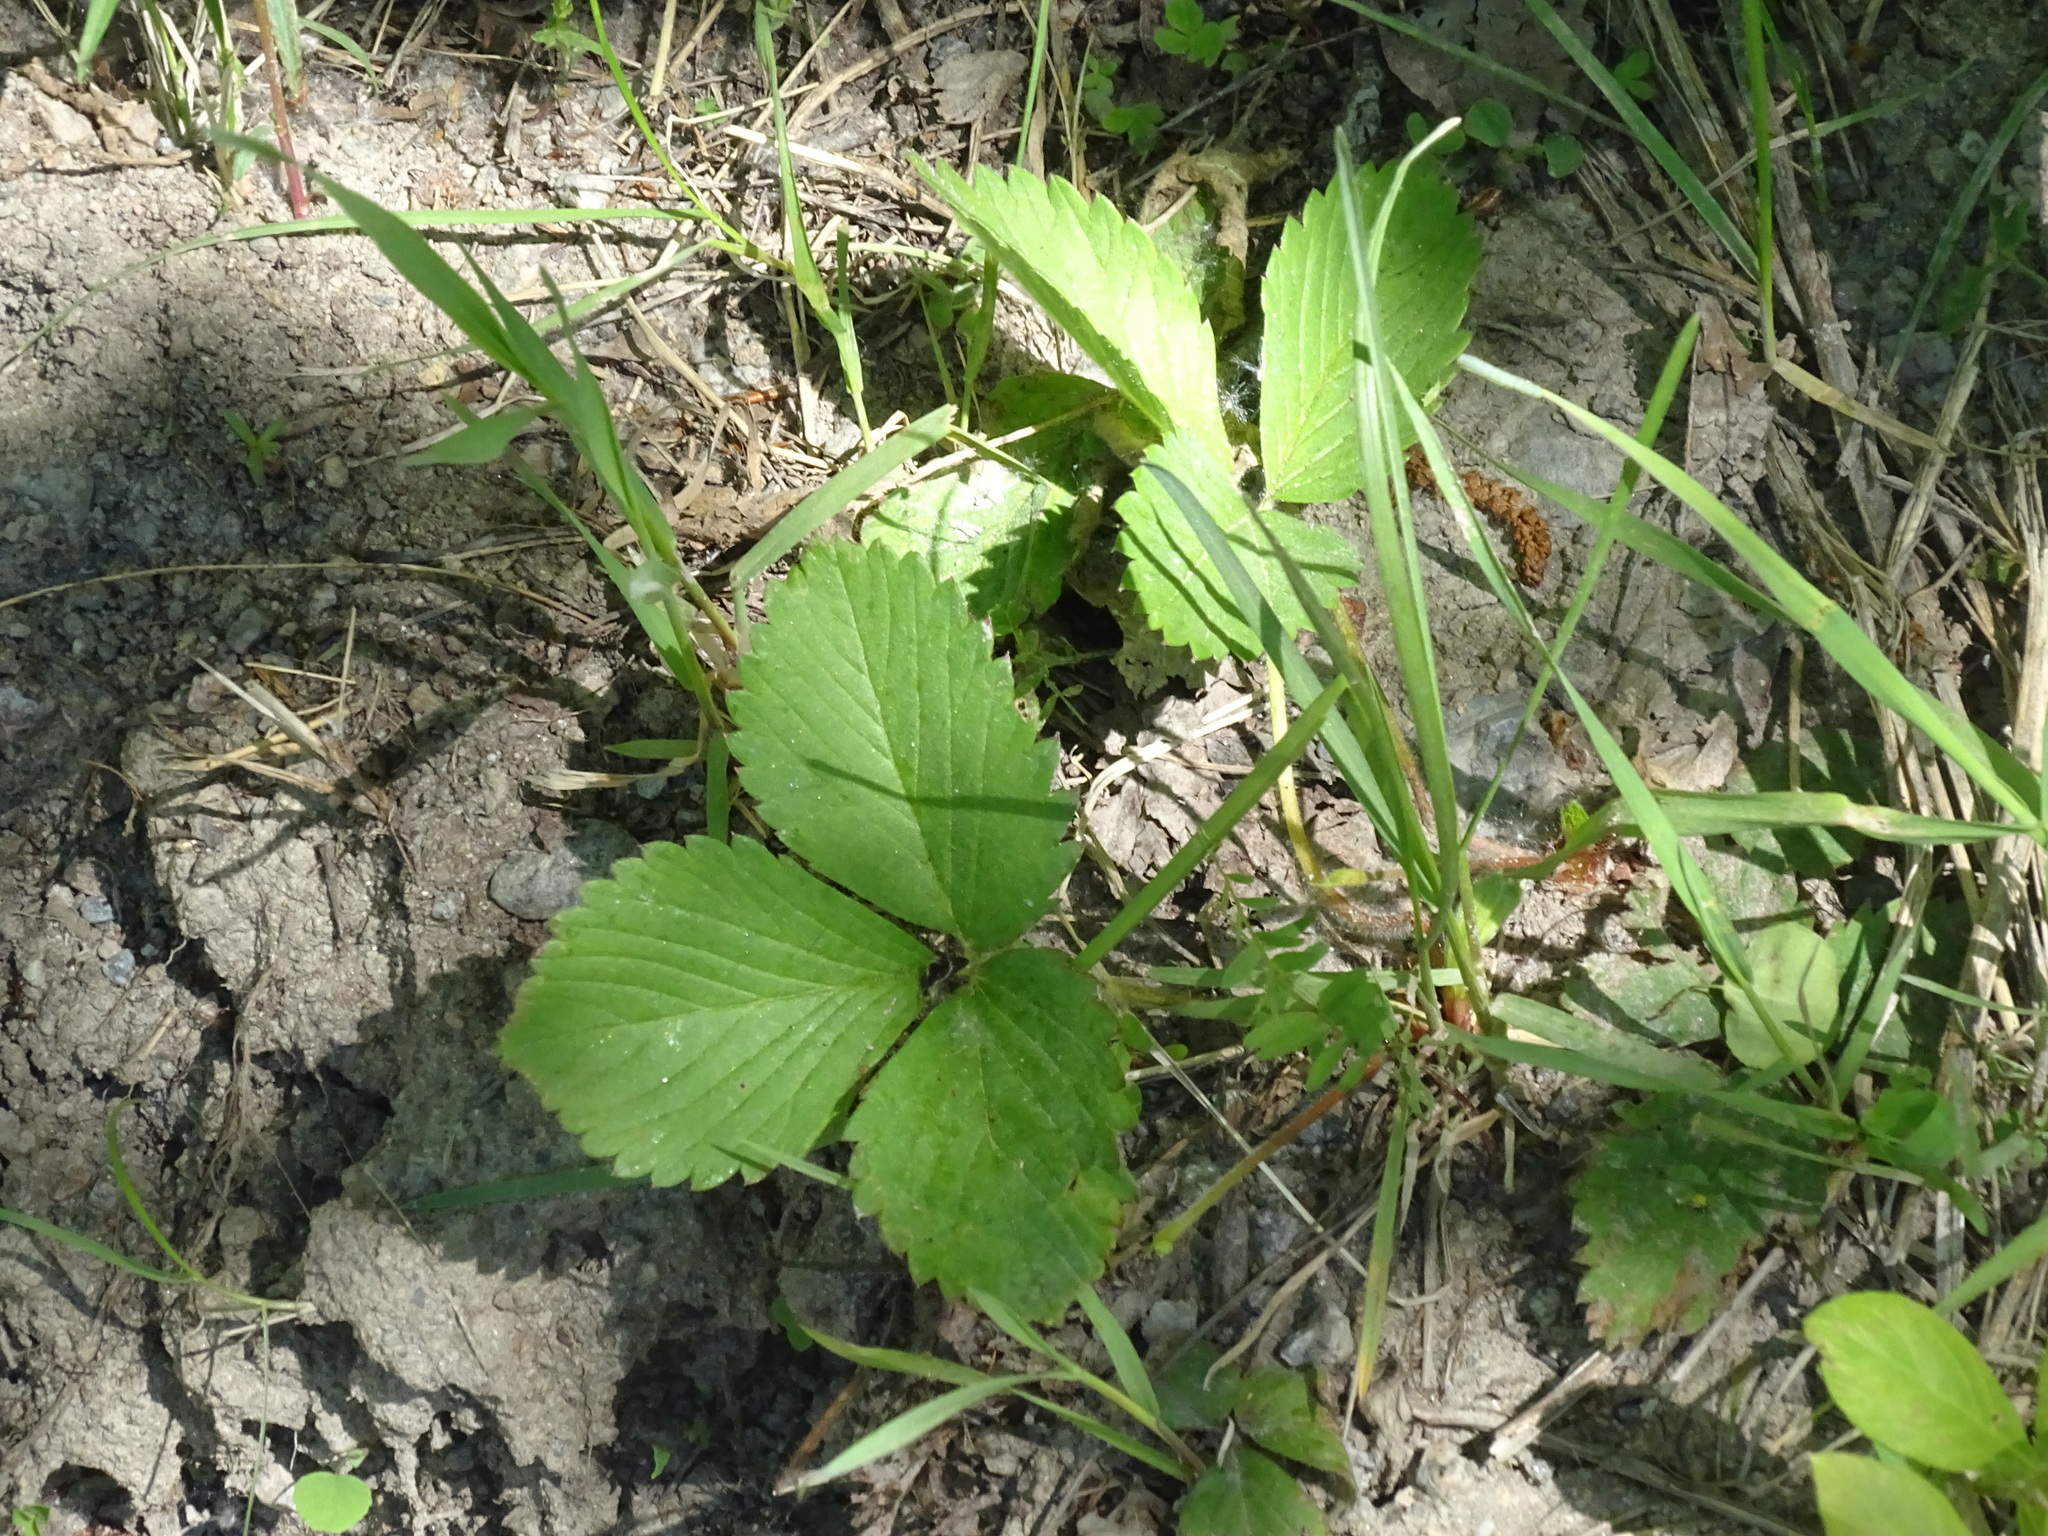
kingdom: Plantae
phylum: Tracheophyta
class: Magnoliopsida
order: Rosales
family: Rosaceae
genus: Fragaria
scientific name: Fragaria virginiana
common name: Thickleaved wild strawberry
